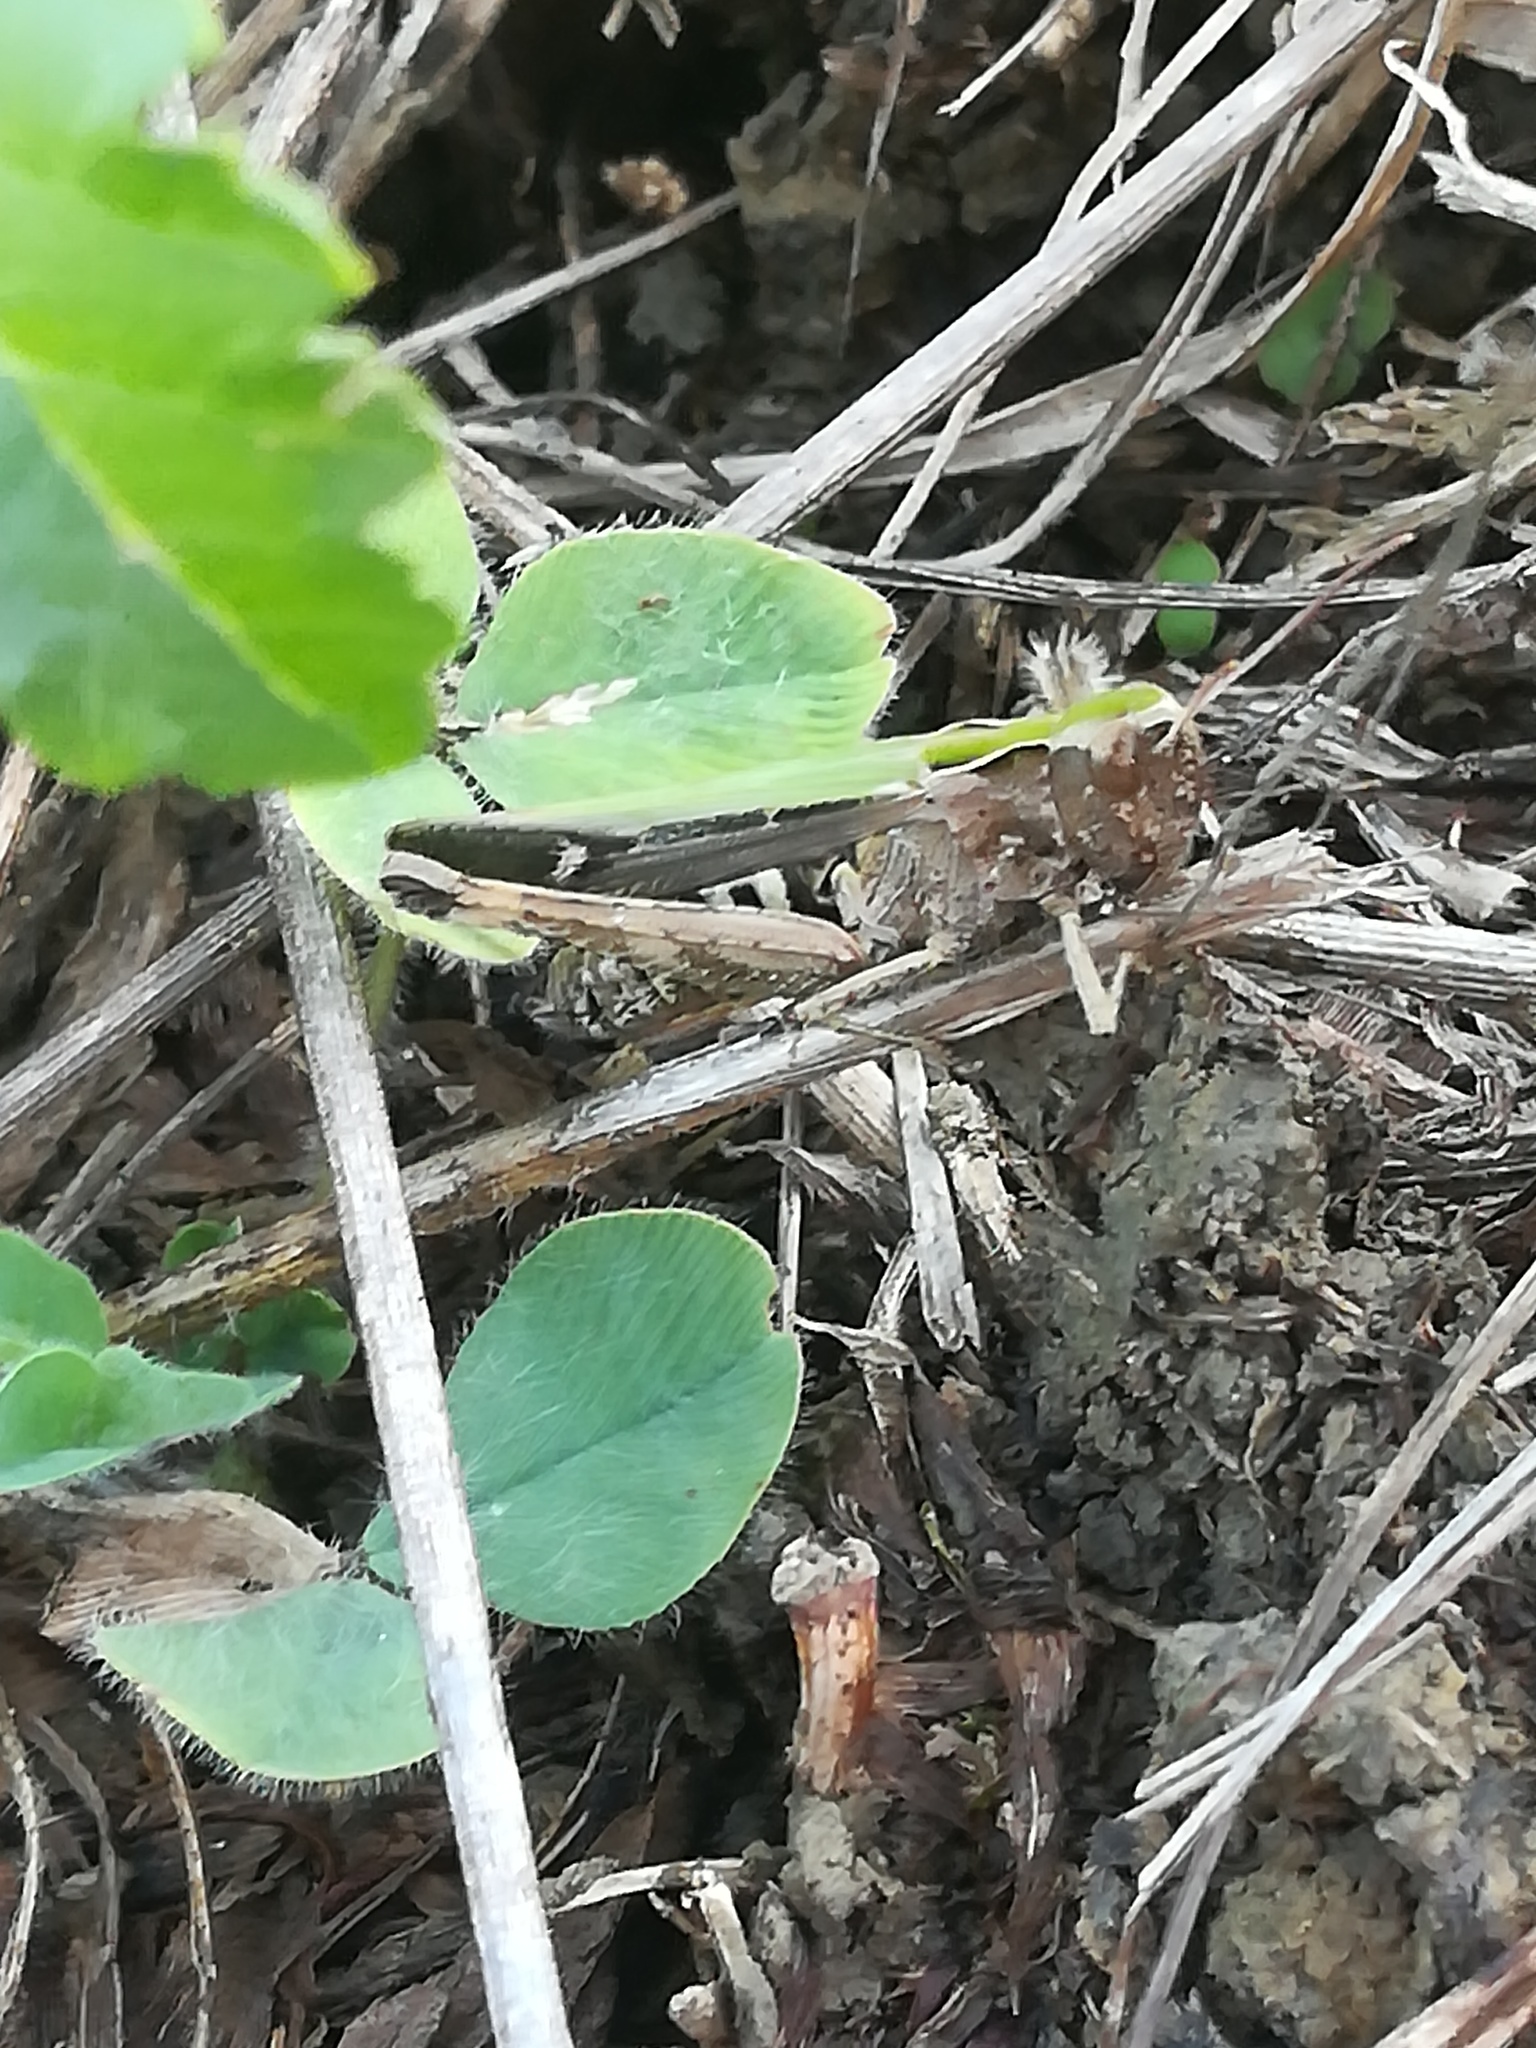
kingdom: Animalia
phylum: Arthropoda
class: Insecta
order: Orthoptera
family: Acrididae
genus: Omocestus
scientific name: Omocestus rufipes
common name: Woodland grasshopper
